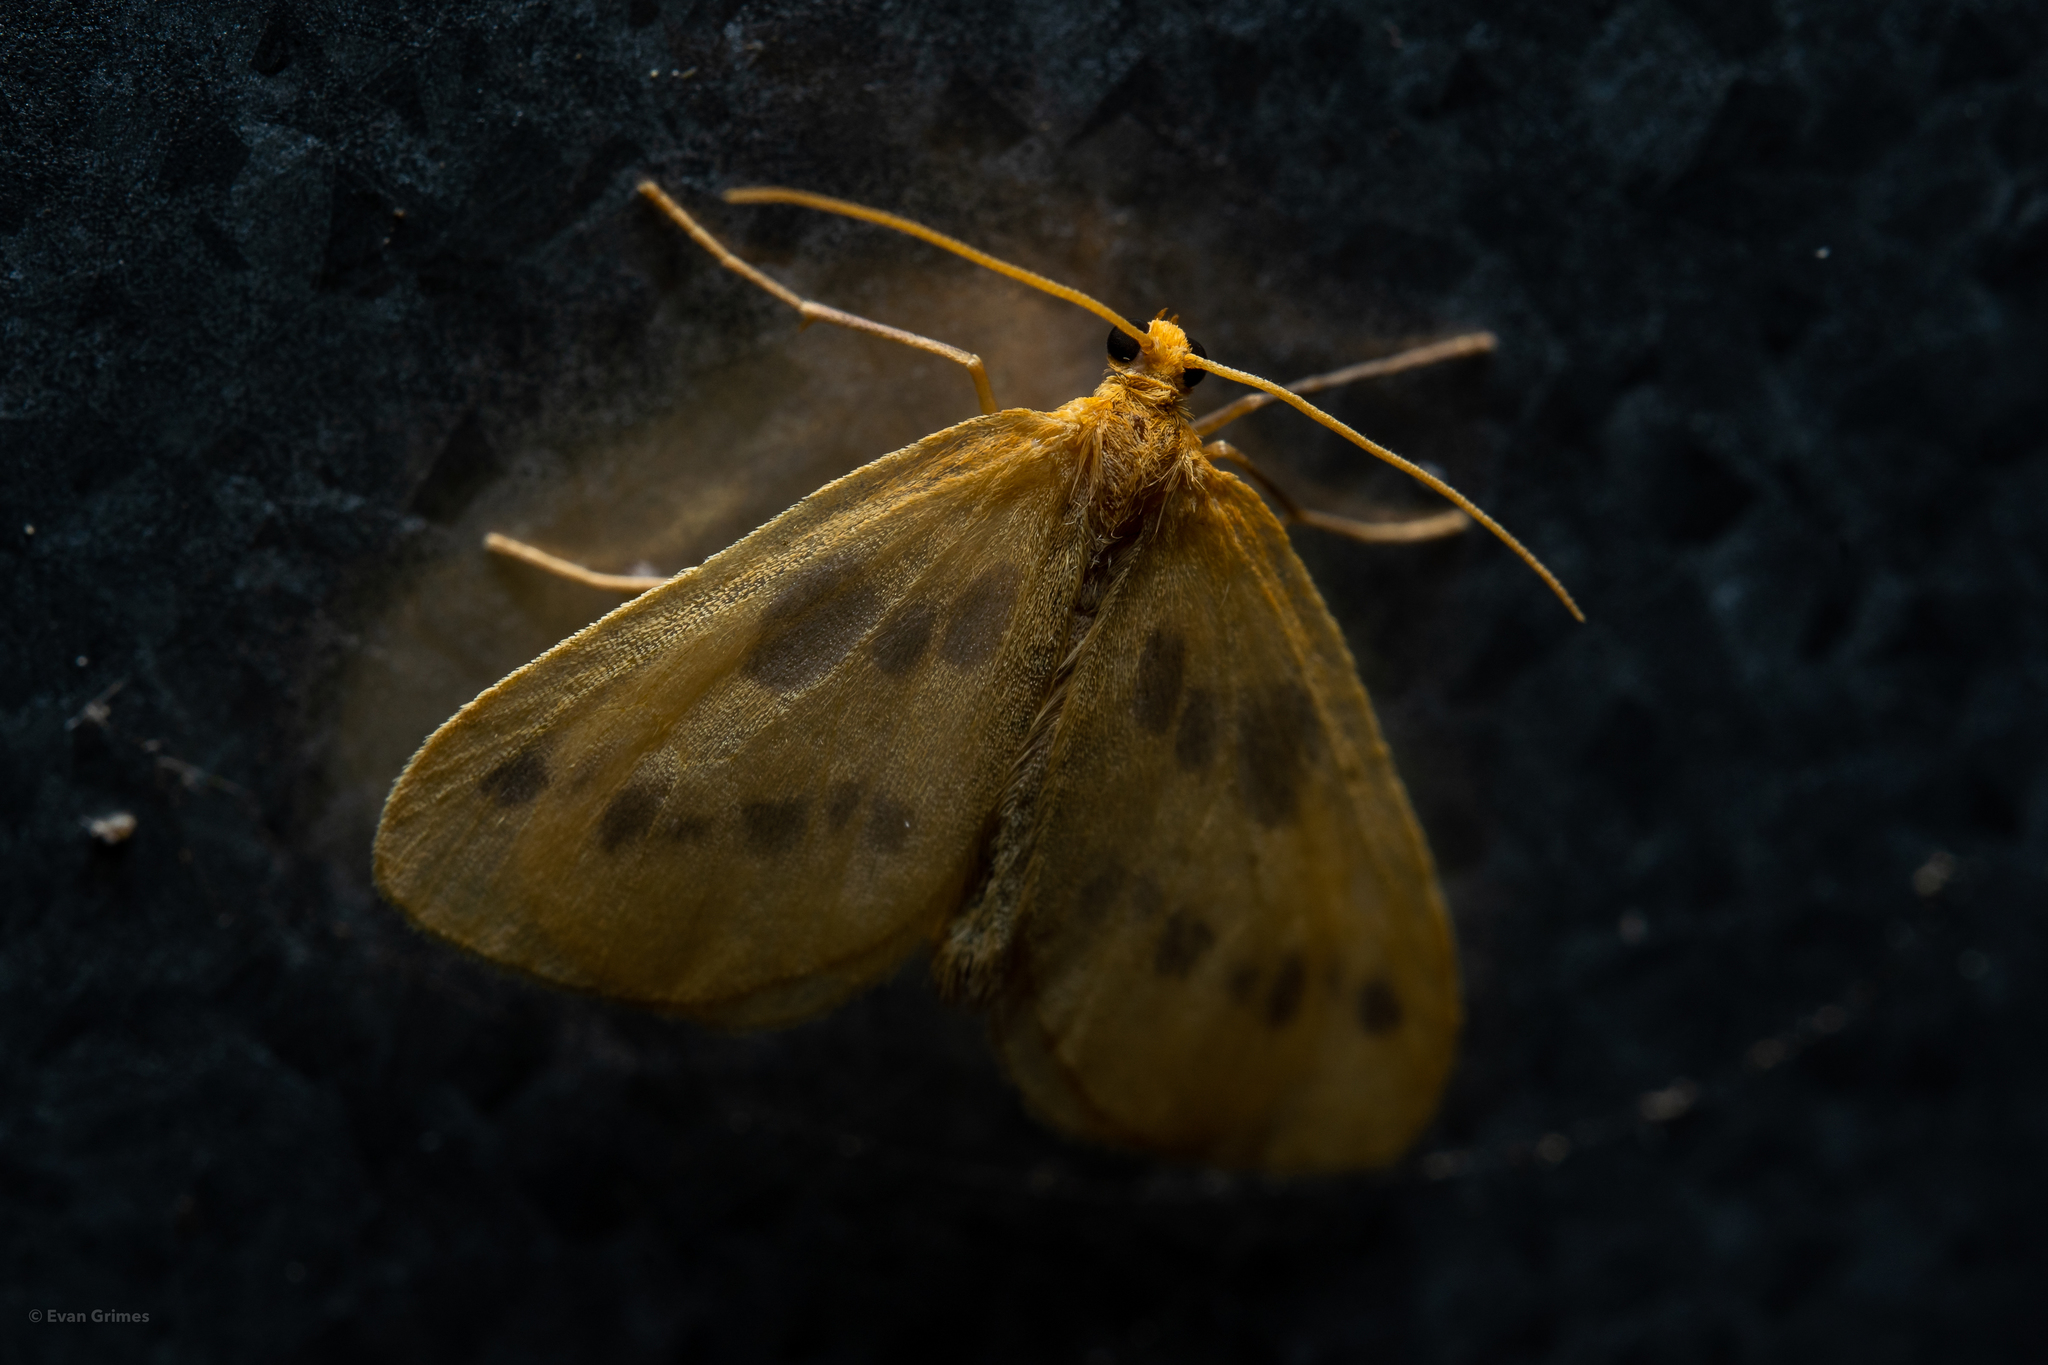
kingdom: Animalia
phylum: Arthropoda
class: Insecta
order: Lepidoptera
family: Geometridae
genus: Eubaphe
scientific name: Eubaphe meridiana
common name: Little beggar
